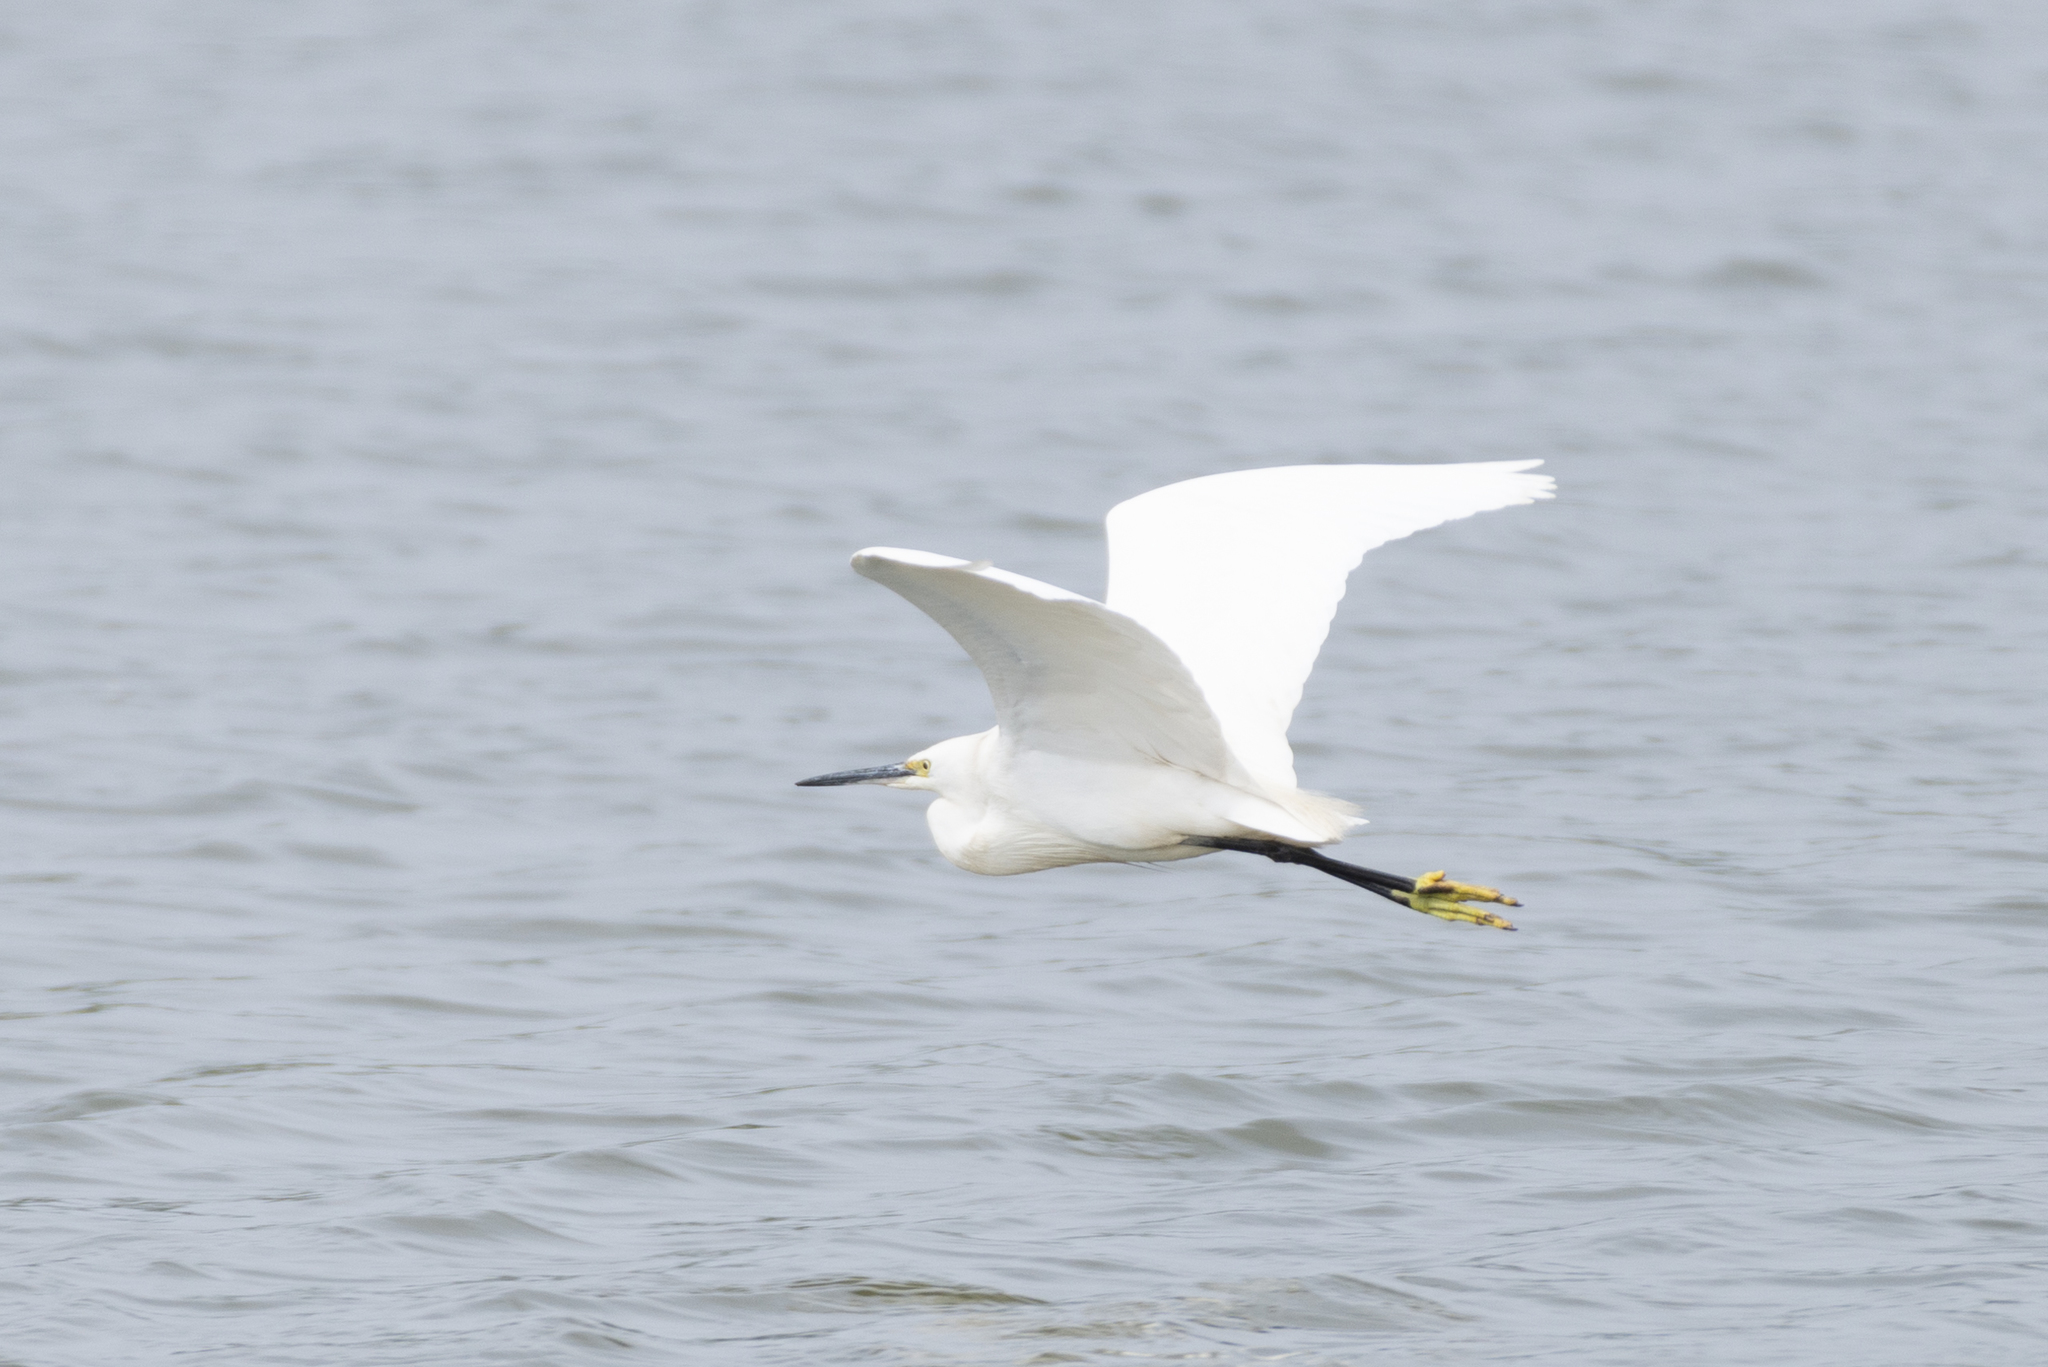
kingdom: Animalia
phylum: Chordata
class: Aves
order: Pelecaniformes
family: Ardeidae
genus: Egretta
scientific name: Egretta garzetta
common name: Little egret
